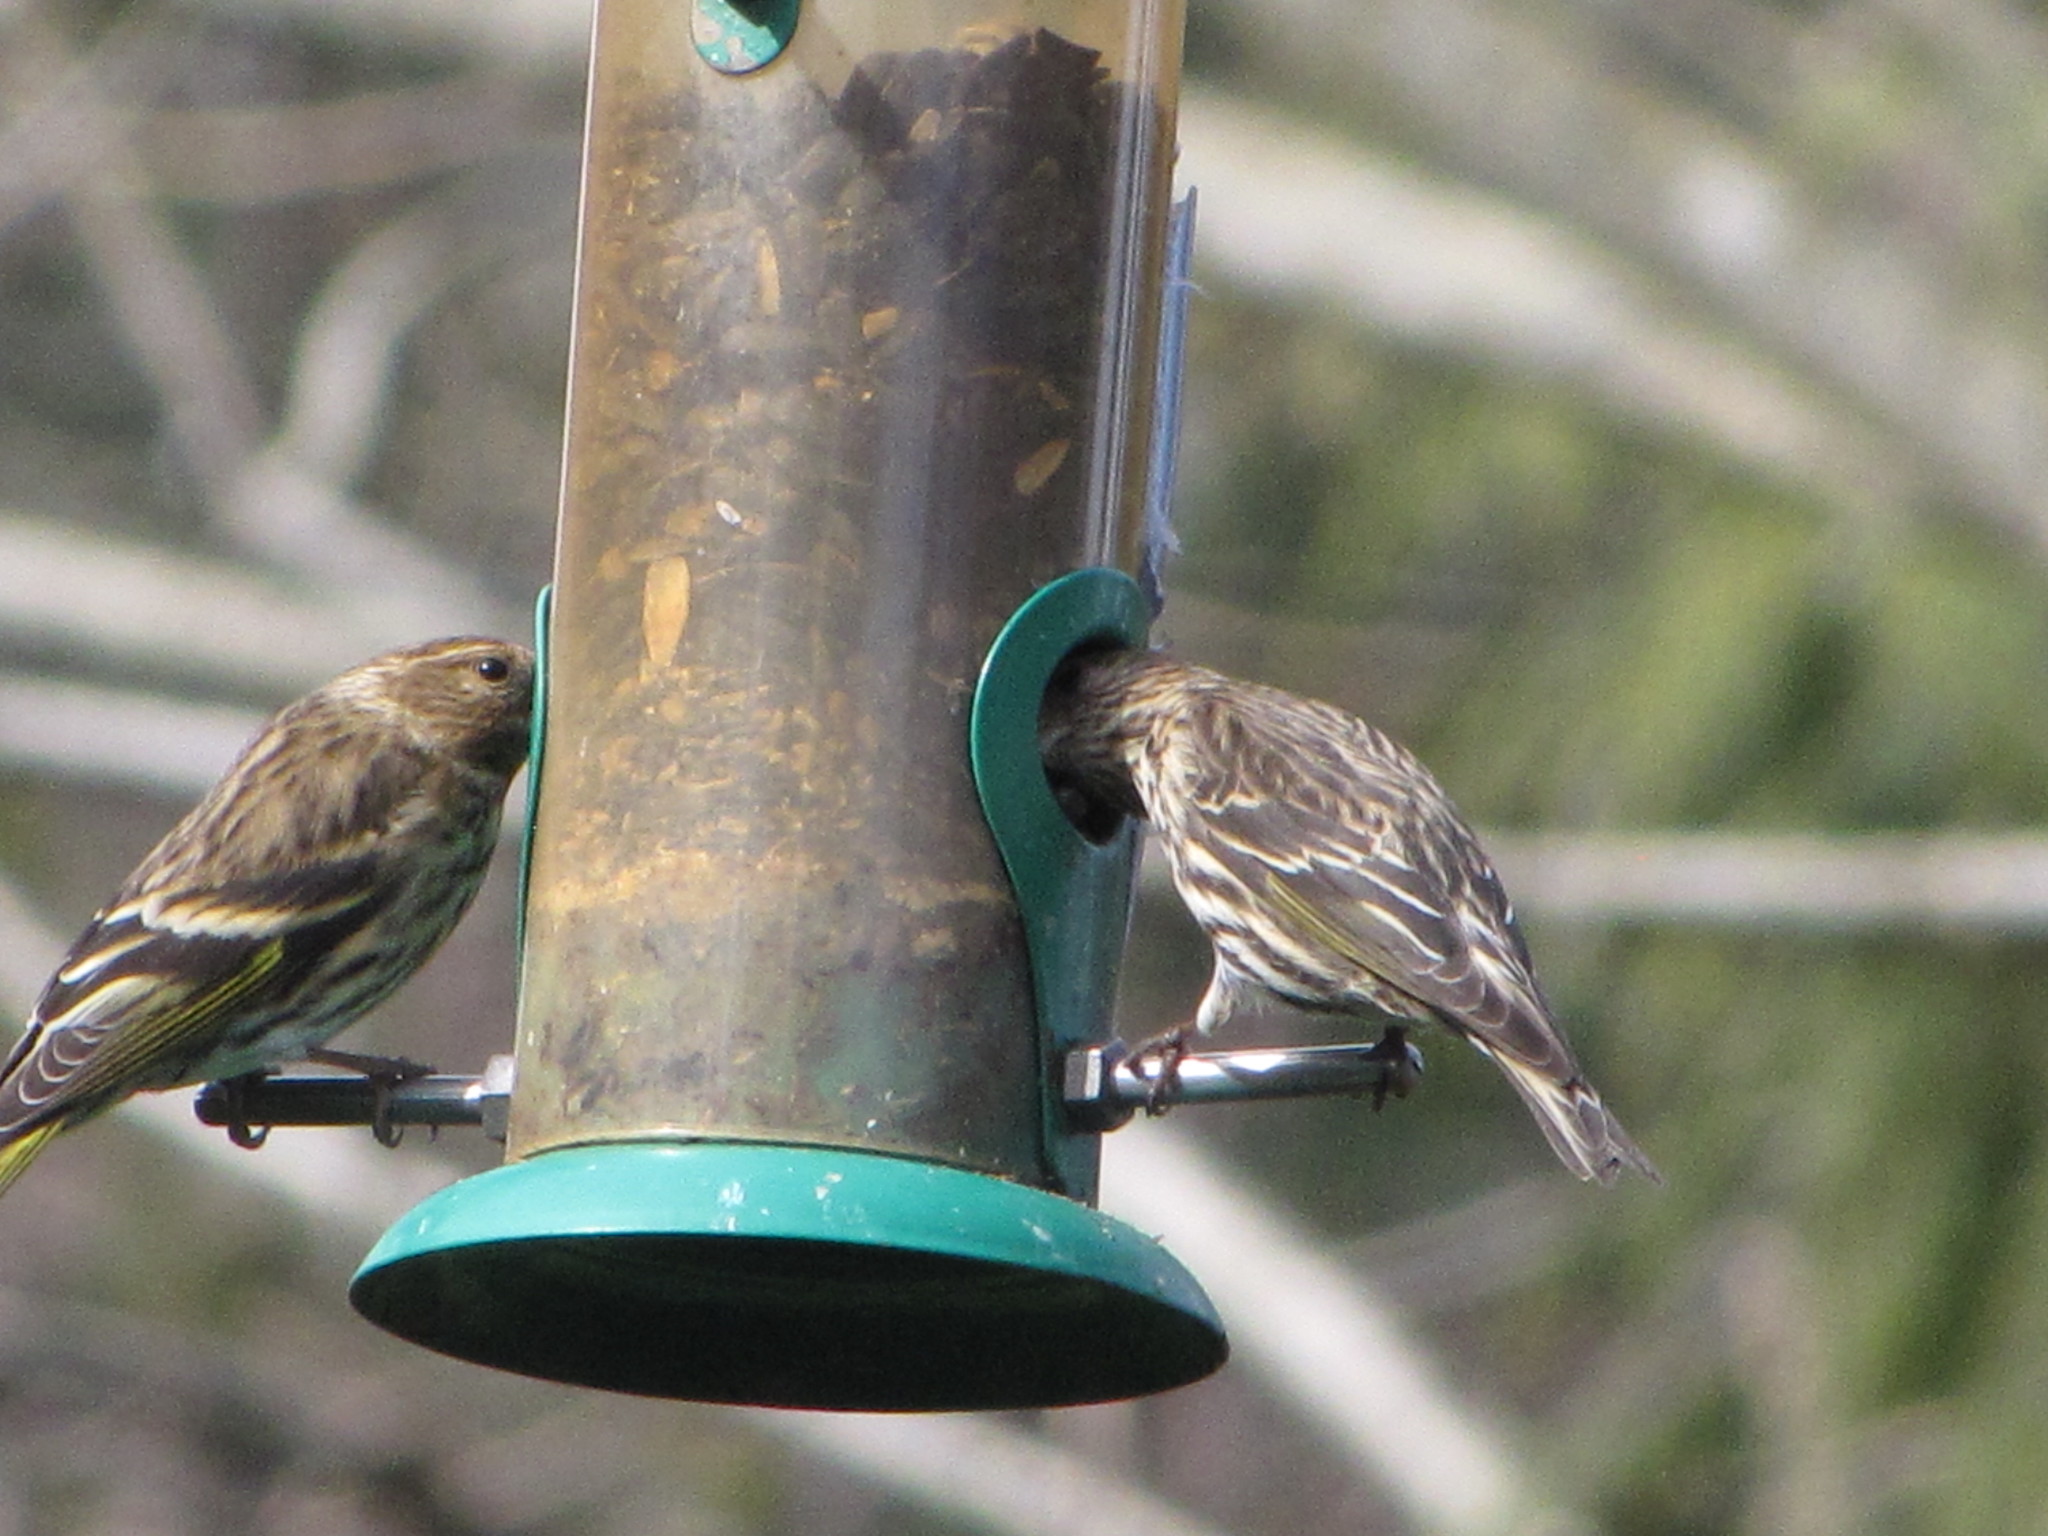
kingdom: Animalia
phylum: Chordata
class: Aves
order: Passeriformes
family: Fringillidae
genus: Spinus
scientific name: Spinus pinus
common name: Pine siskin
